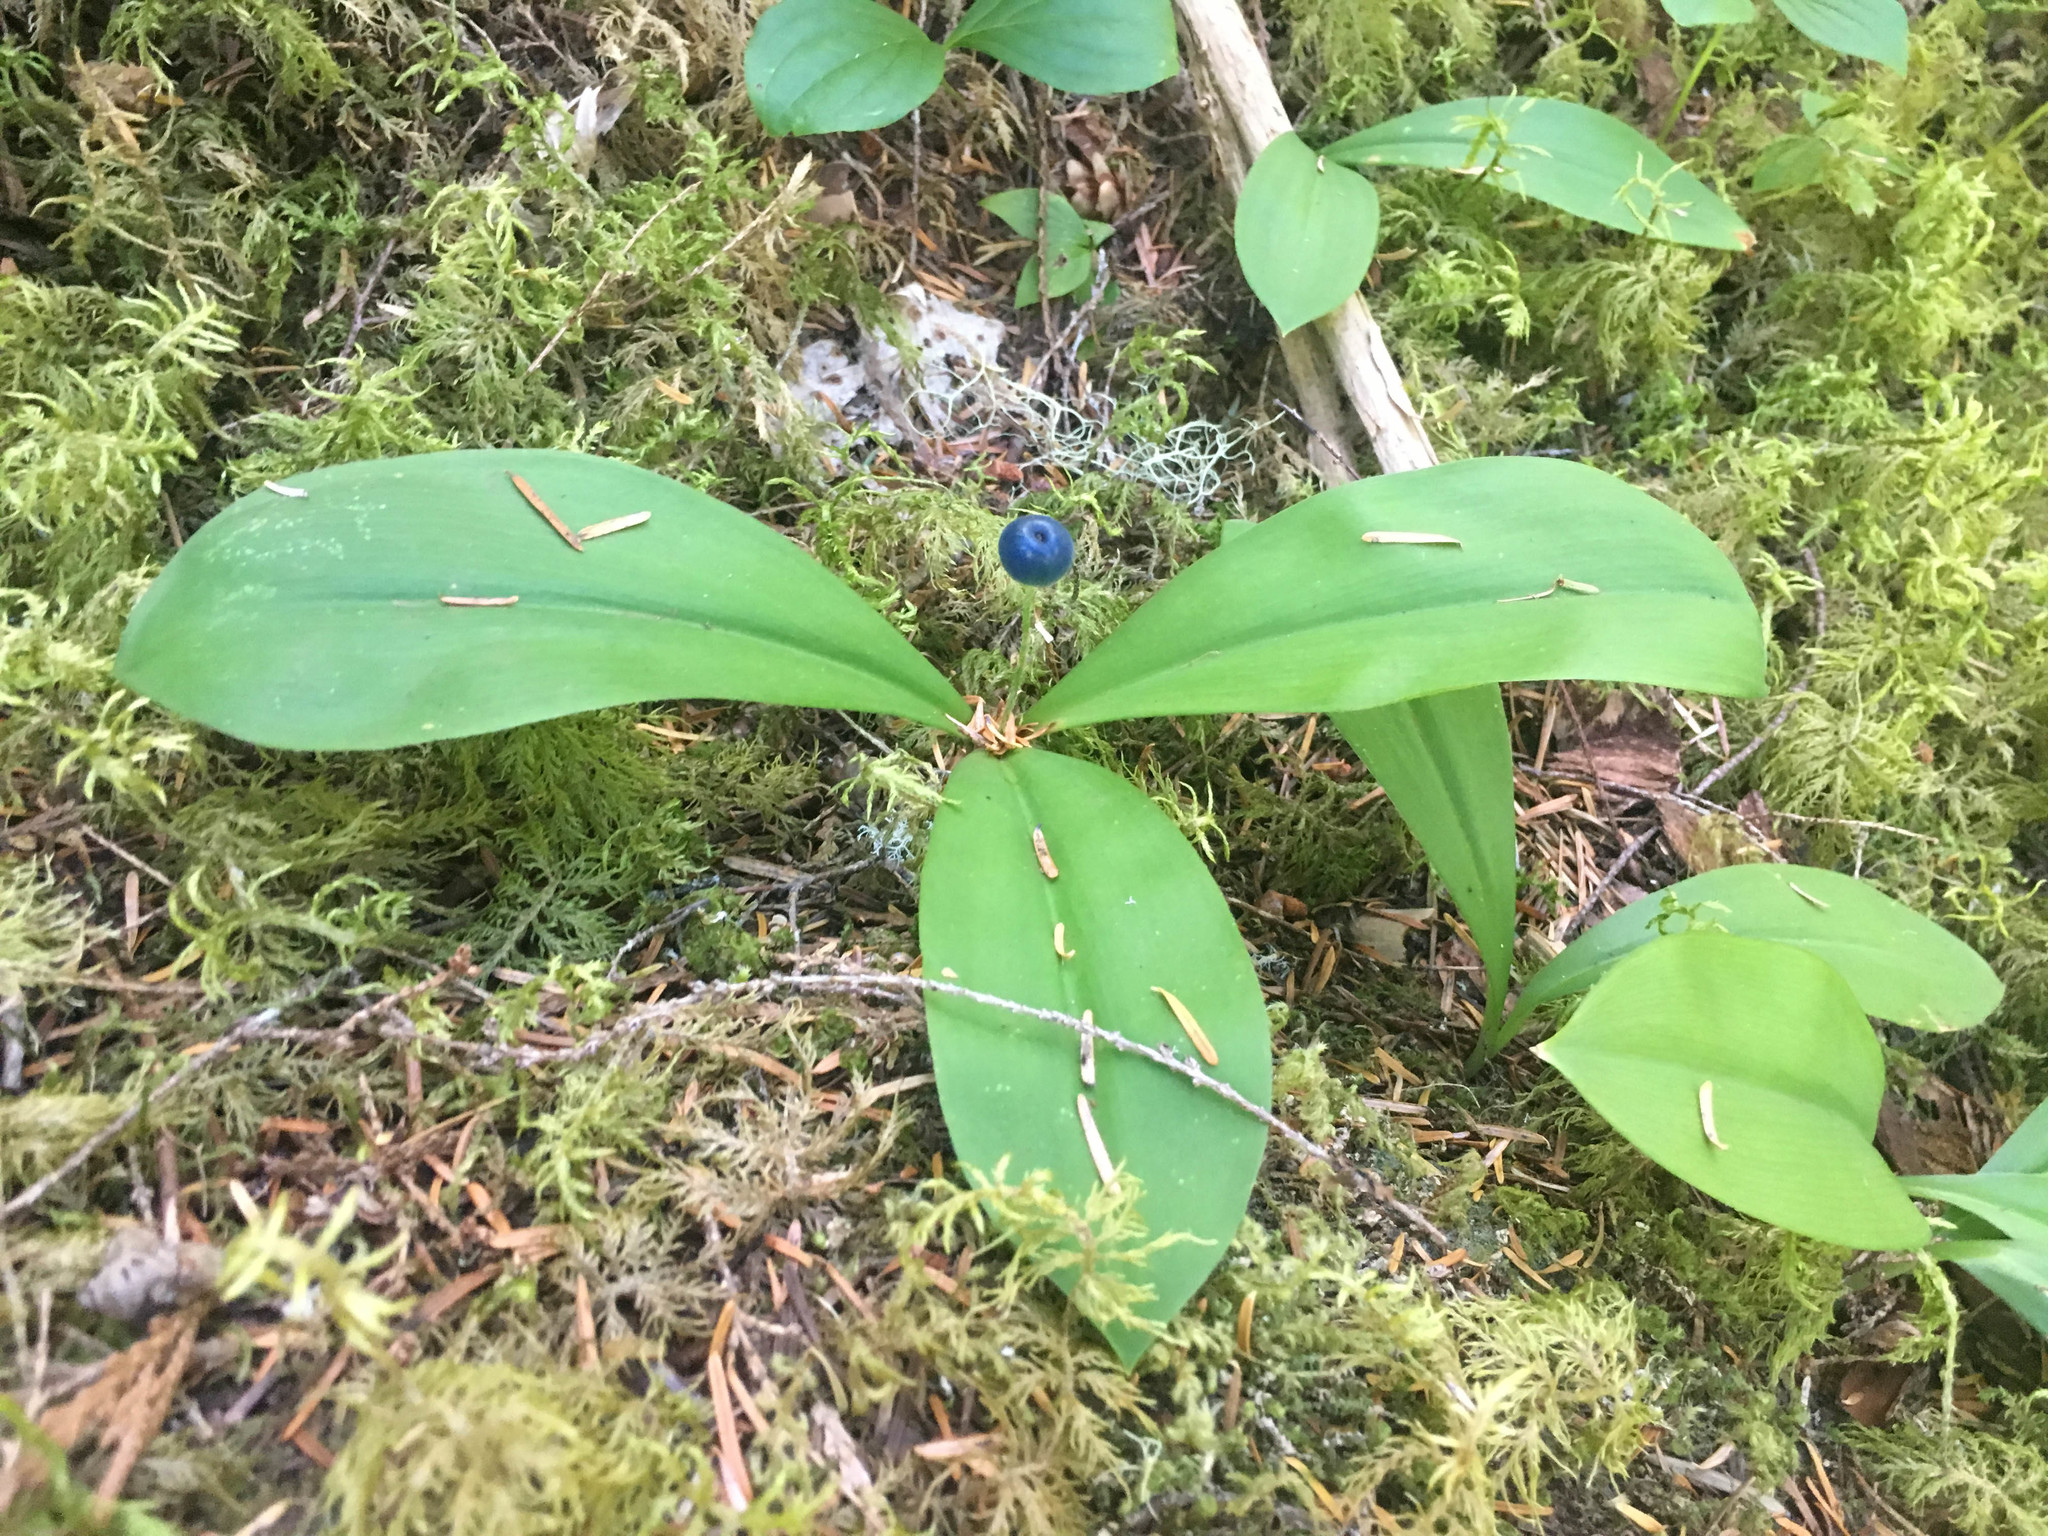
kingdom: Plantae
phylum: Tracheophyta
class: Liliopsida
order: Liliales
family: Liliaceae
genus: Clintonia
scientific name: Clintonia uniflora
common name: Queen's cup
